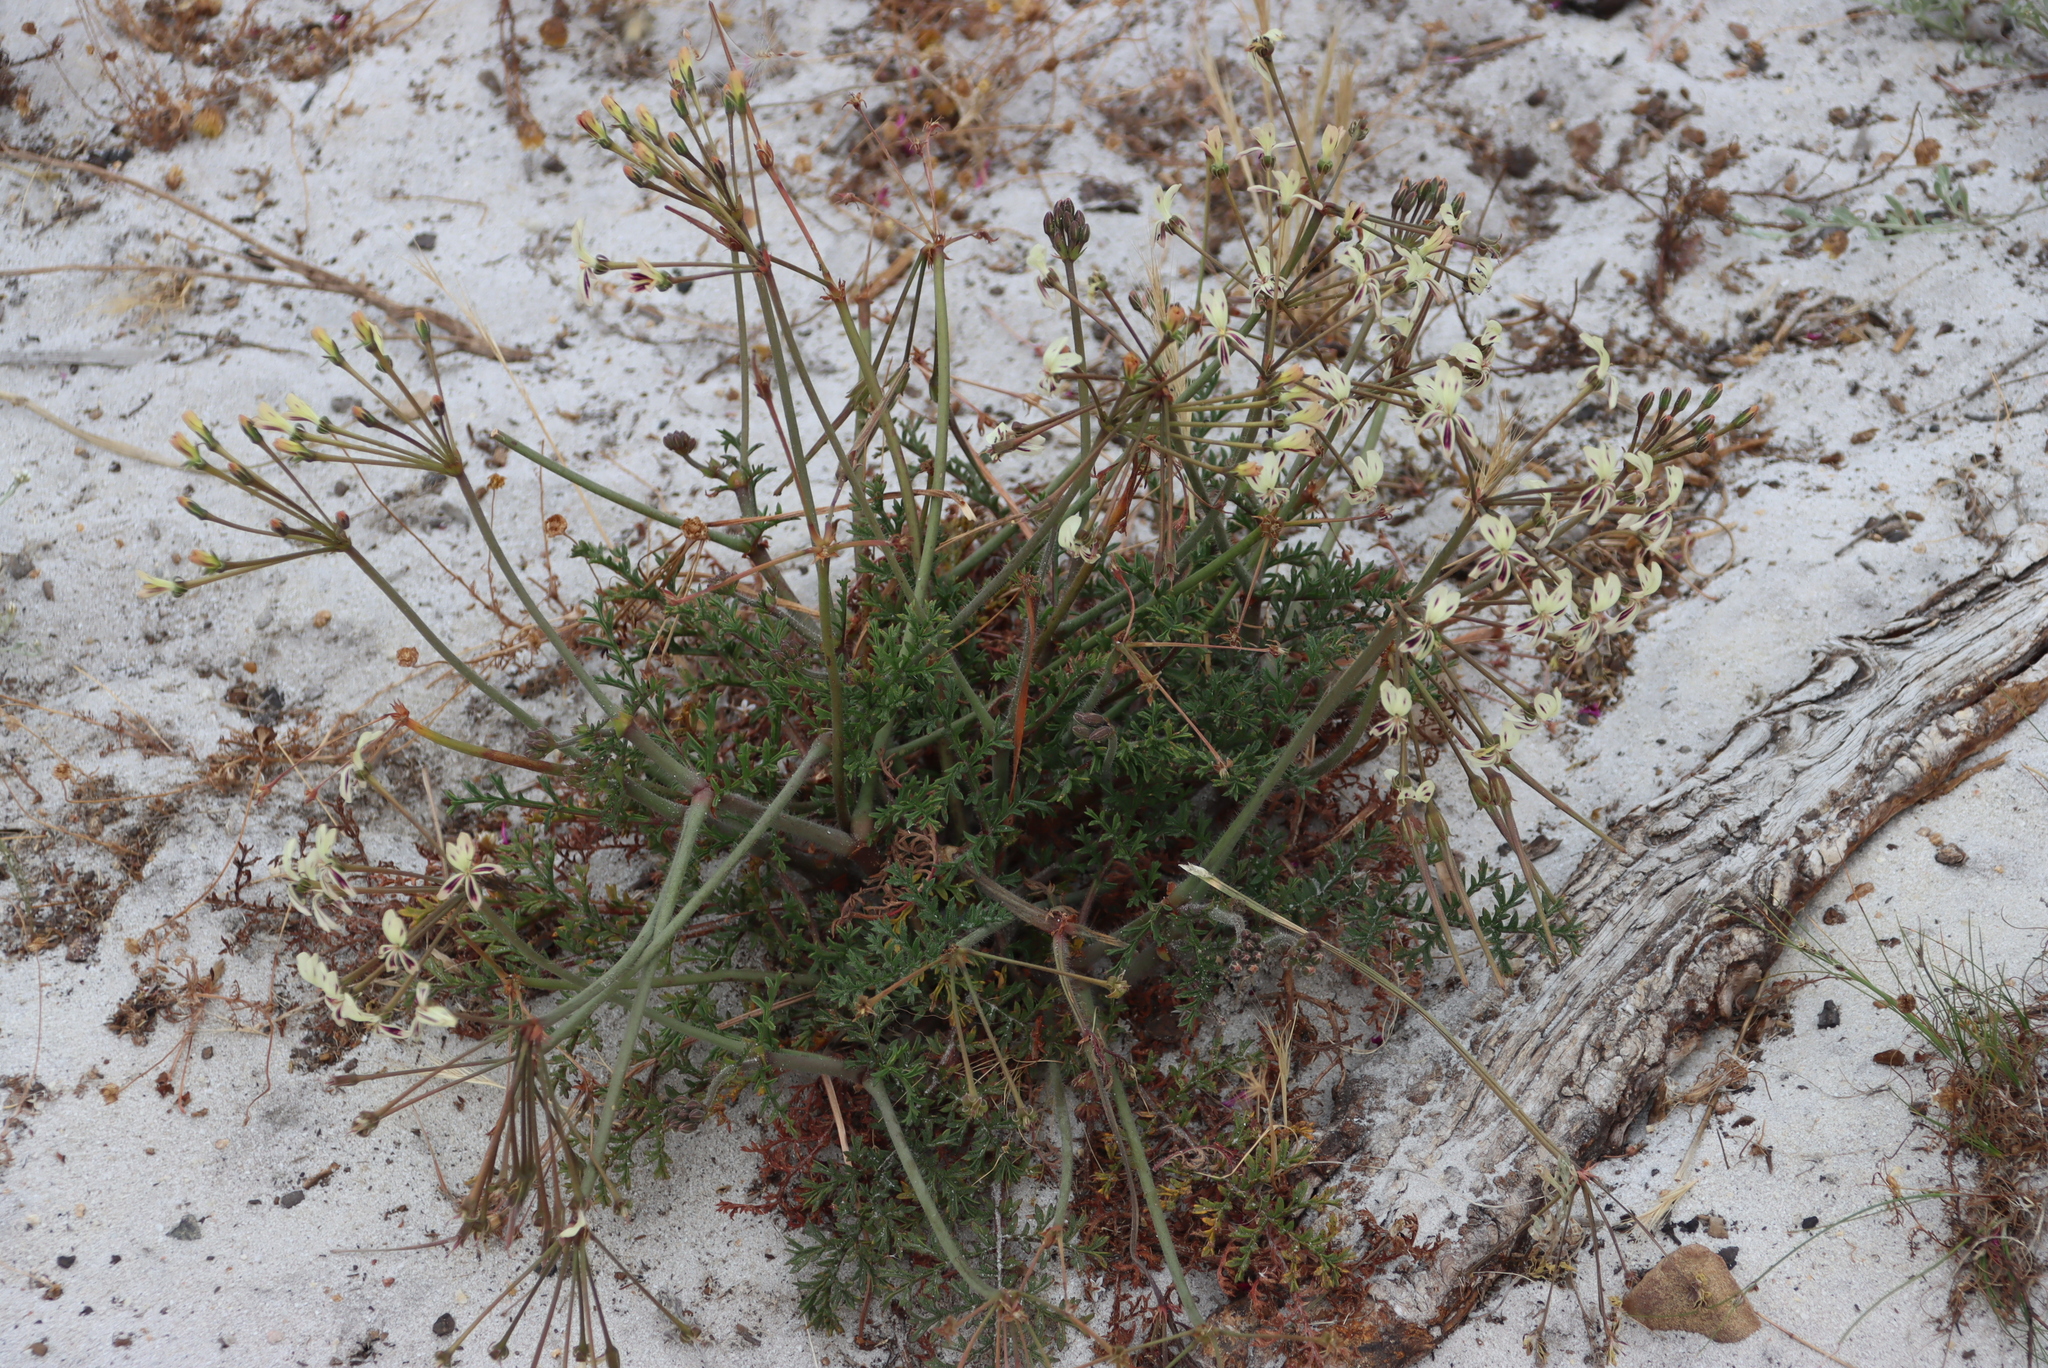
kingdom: Plantae
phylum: Tracheophyta
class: Magnoliopsida
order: Geraniales
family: Geraniaceae
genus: Pelargonium
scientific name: Pelargonium triste
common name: Night-scent pelargonium
